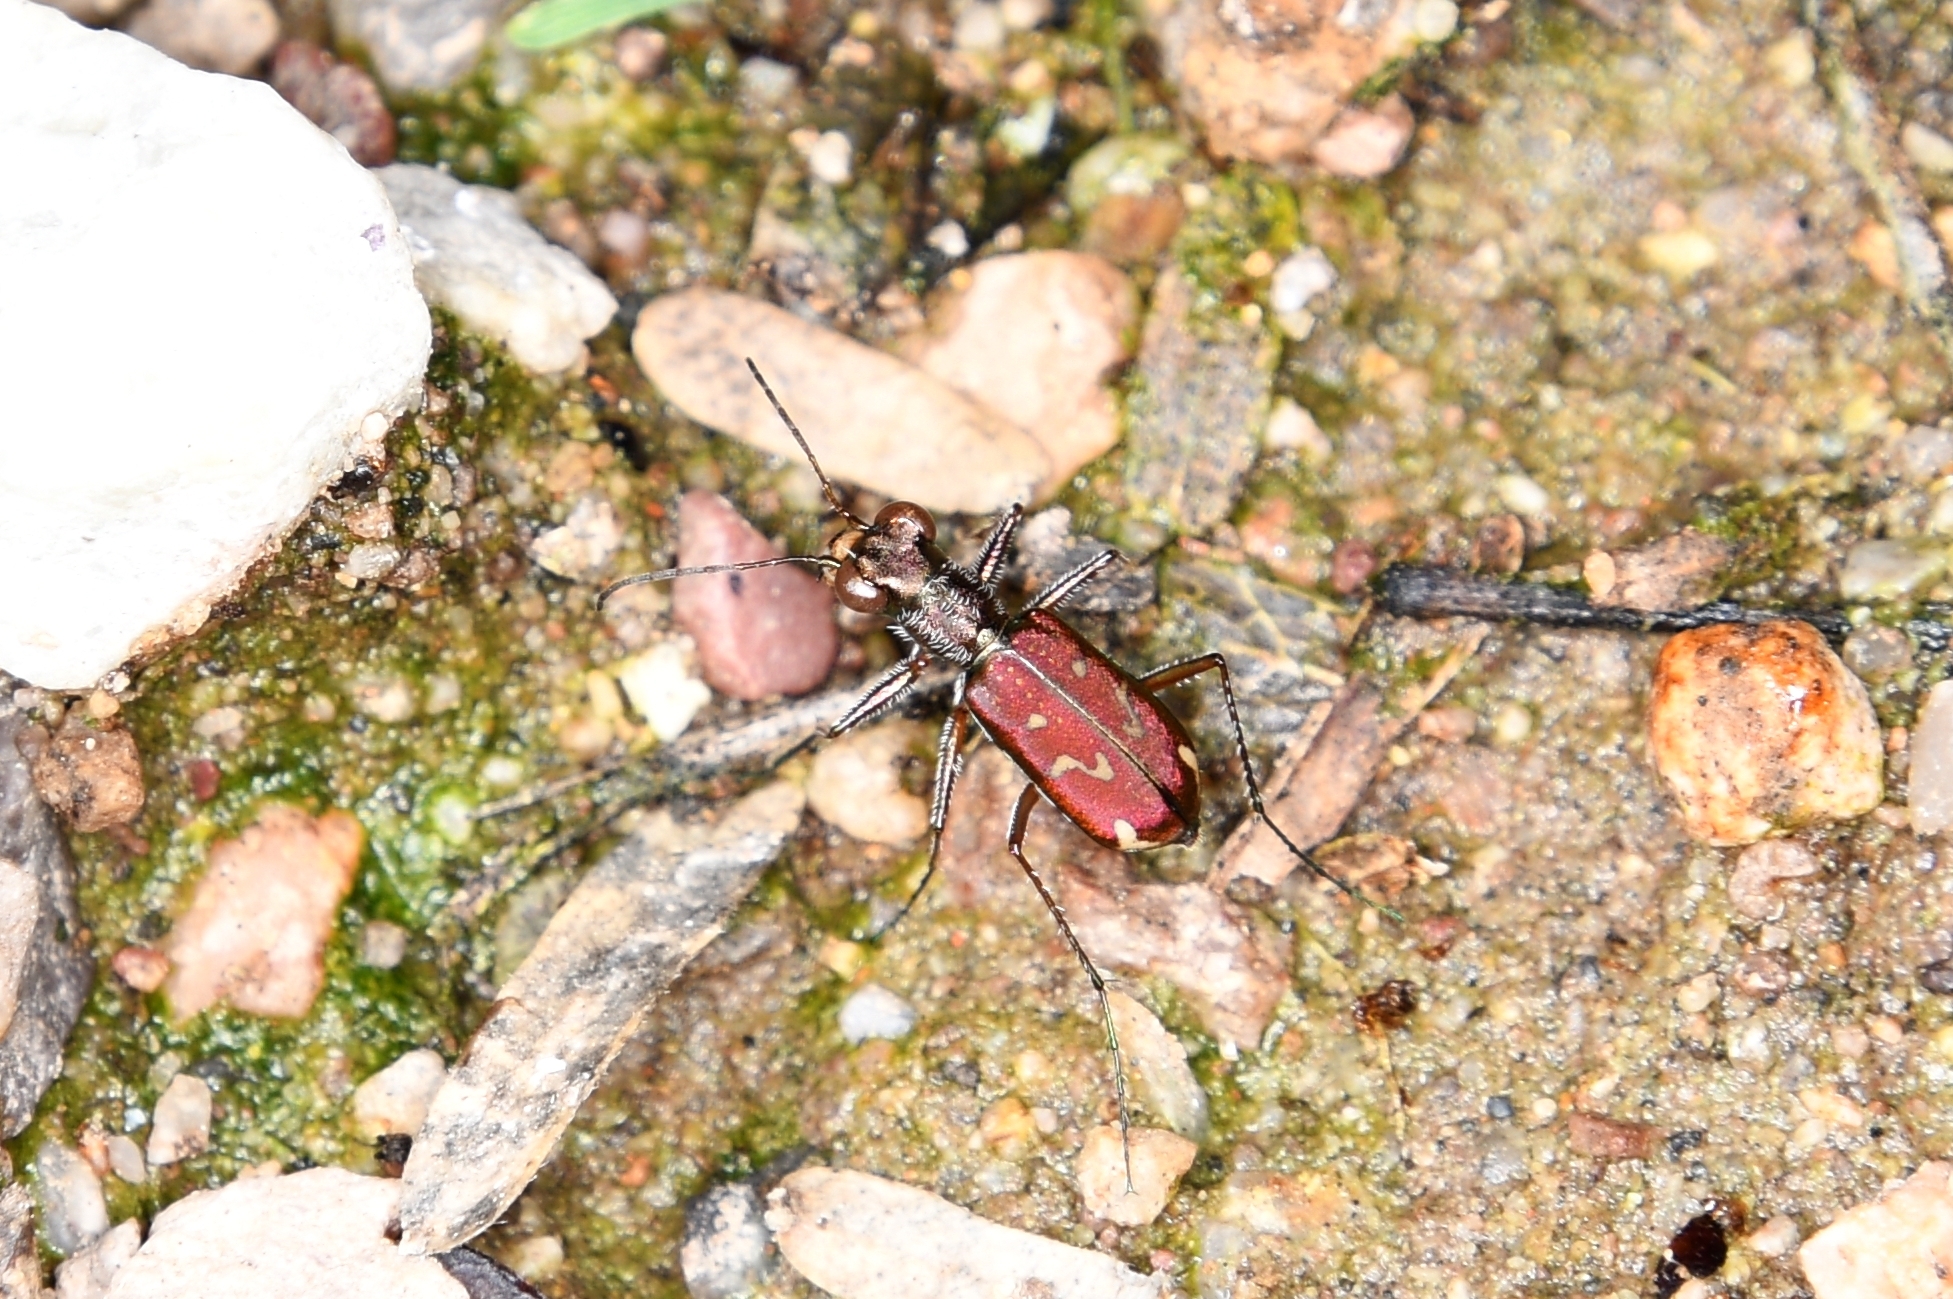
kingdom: Animalia
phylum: Arthropoda
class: Insecta
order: Coleoptera
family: Carabidae
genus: Brasiella
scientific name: Brasiella wickhami
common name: Sonoran tiger beetle
